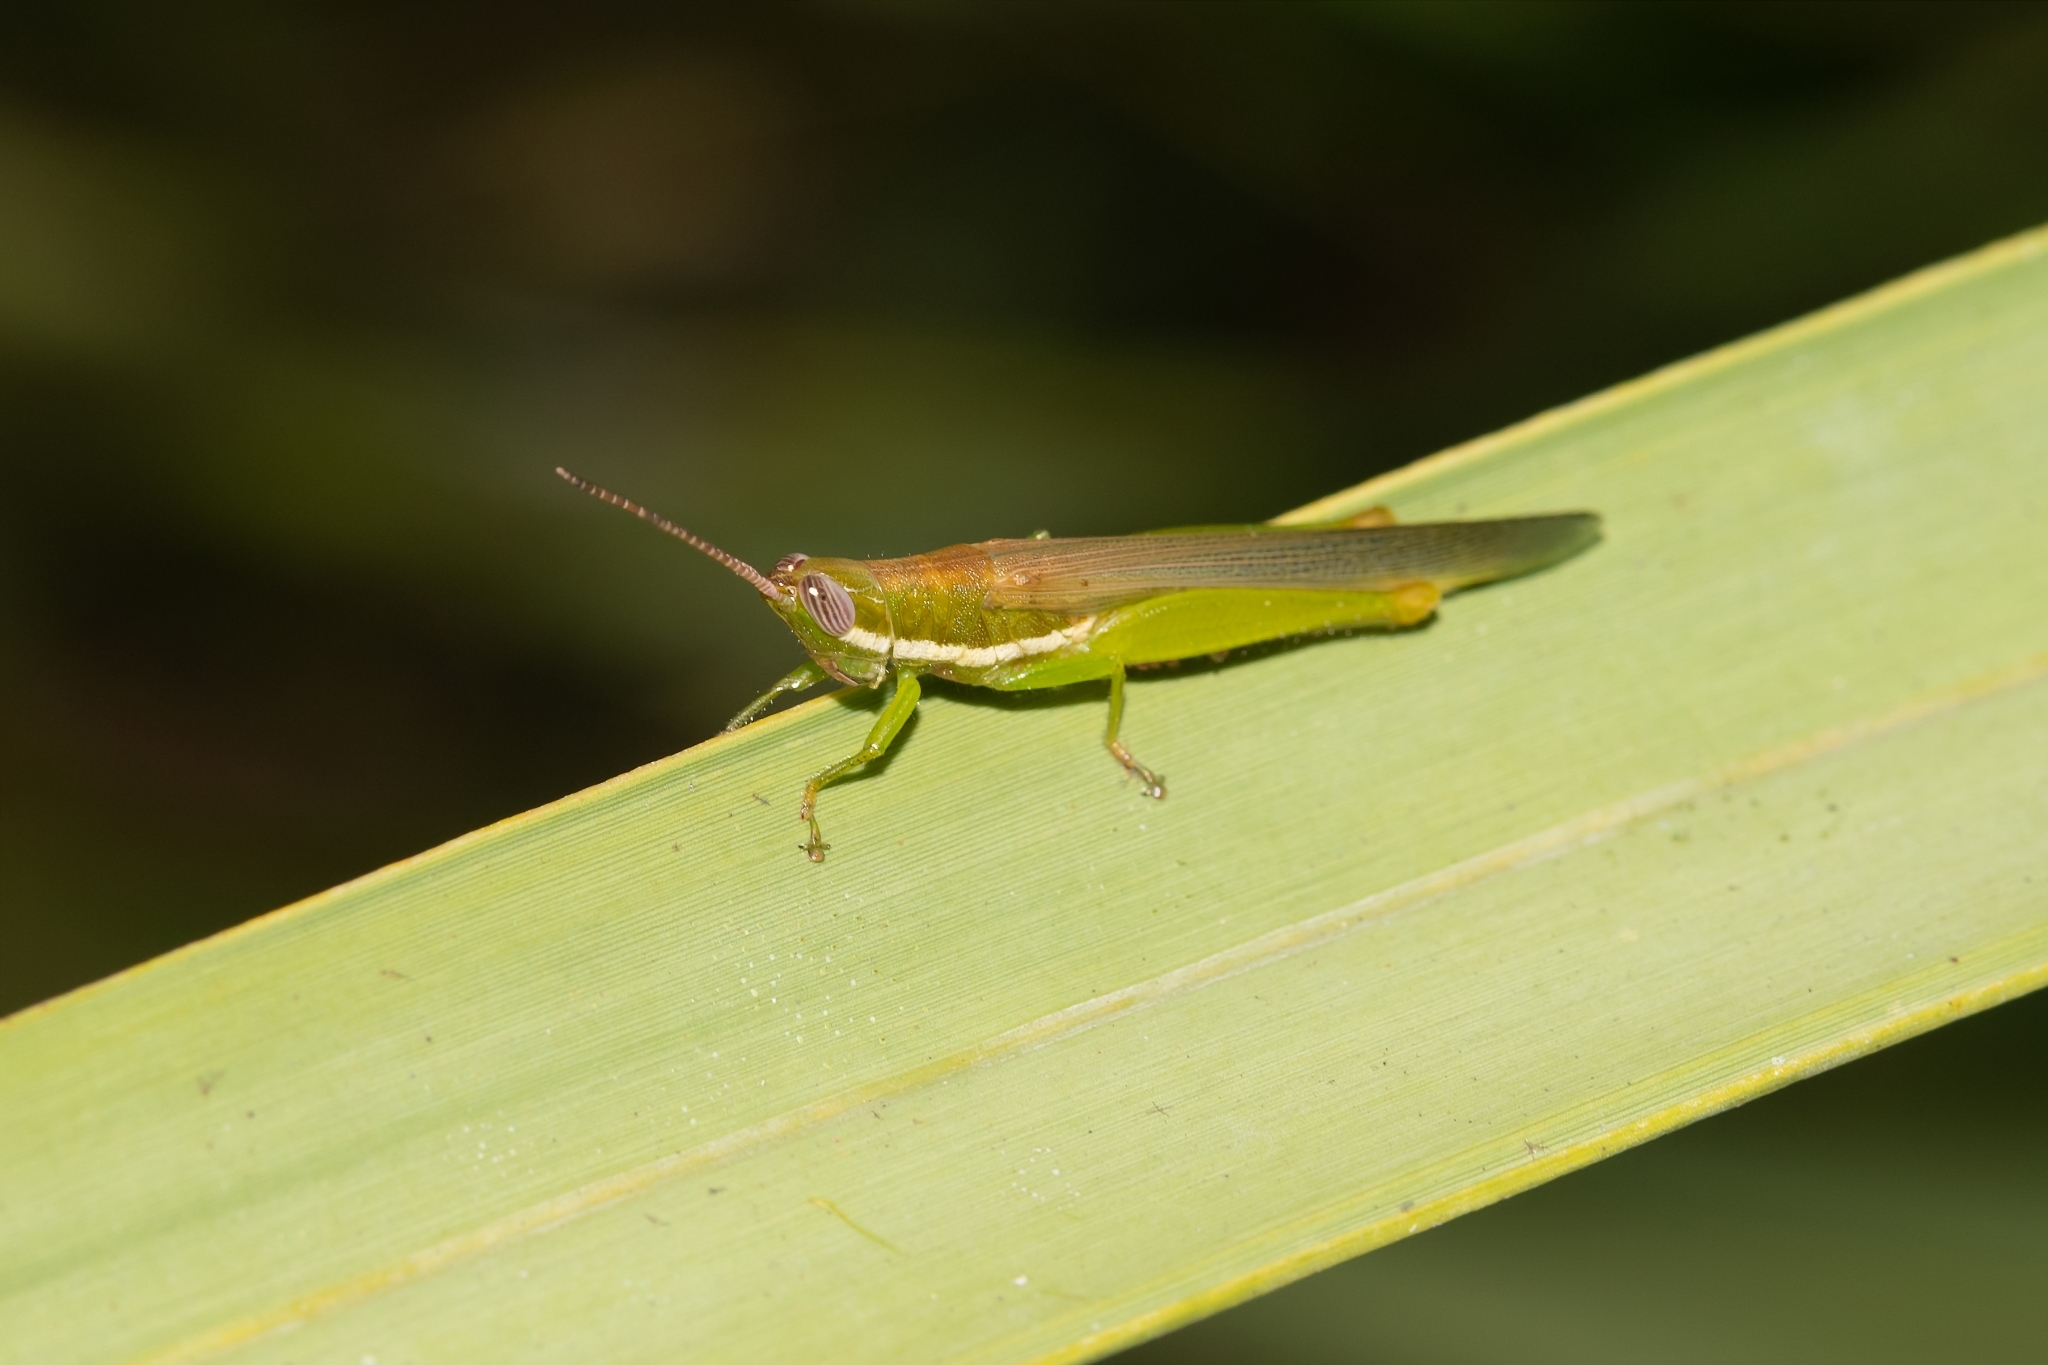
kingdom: Animalia
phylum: Arthropoda
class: Insecta
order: Orthoptera
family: Acrididae
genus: Stenacris
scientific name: Stenacris vitreipennis
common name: Glassy-winged toothpick grasshopper
